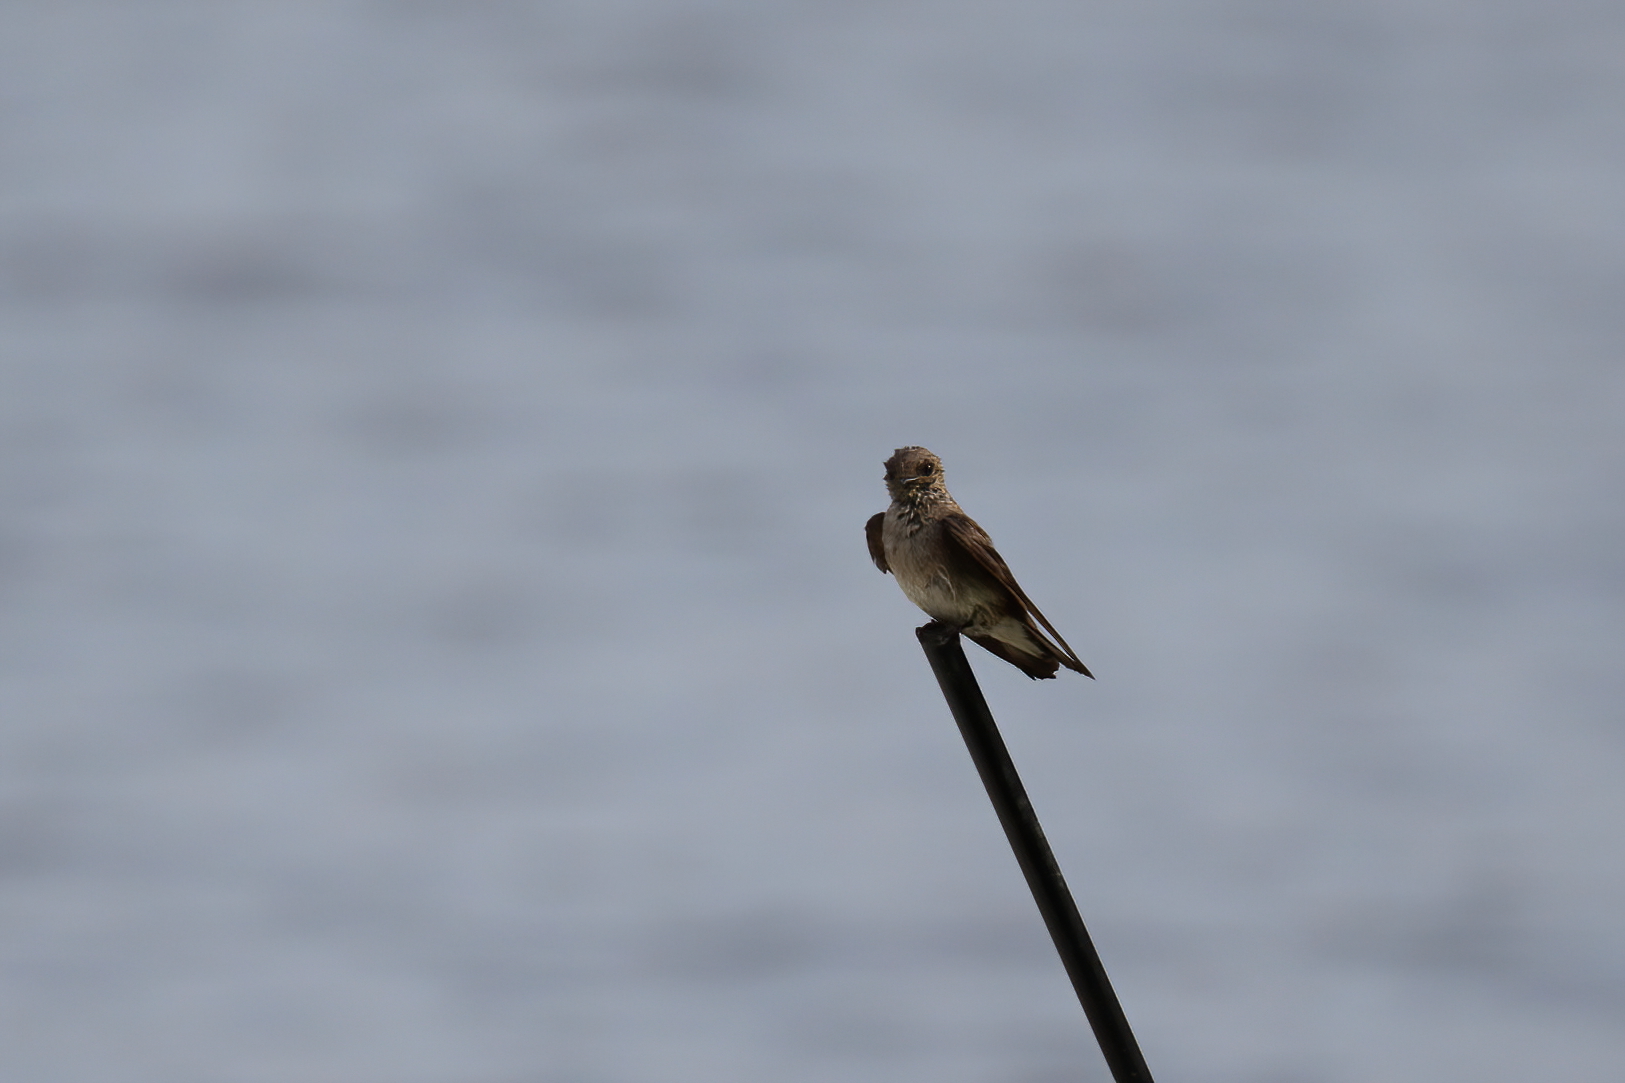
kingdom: Animalia
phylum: Chordata
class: Aves
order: Passeriformes
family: Hirundinidae
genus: Stelgidopteryx
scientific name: Stelgidopteryx serripennis
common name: Northern rough-winged swallow
